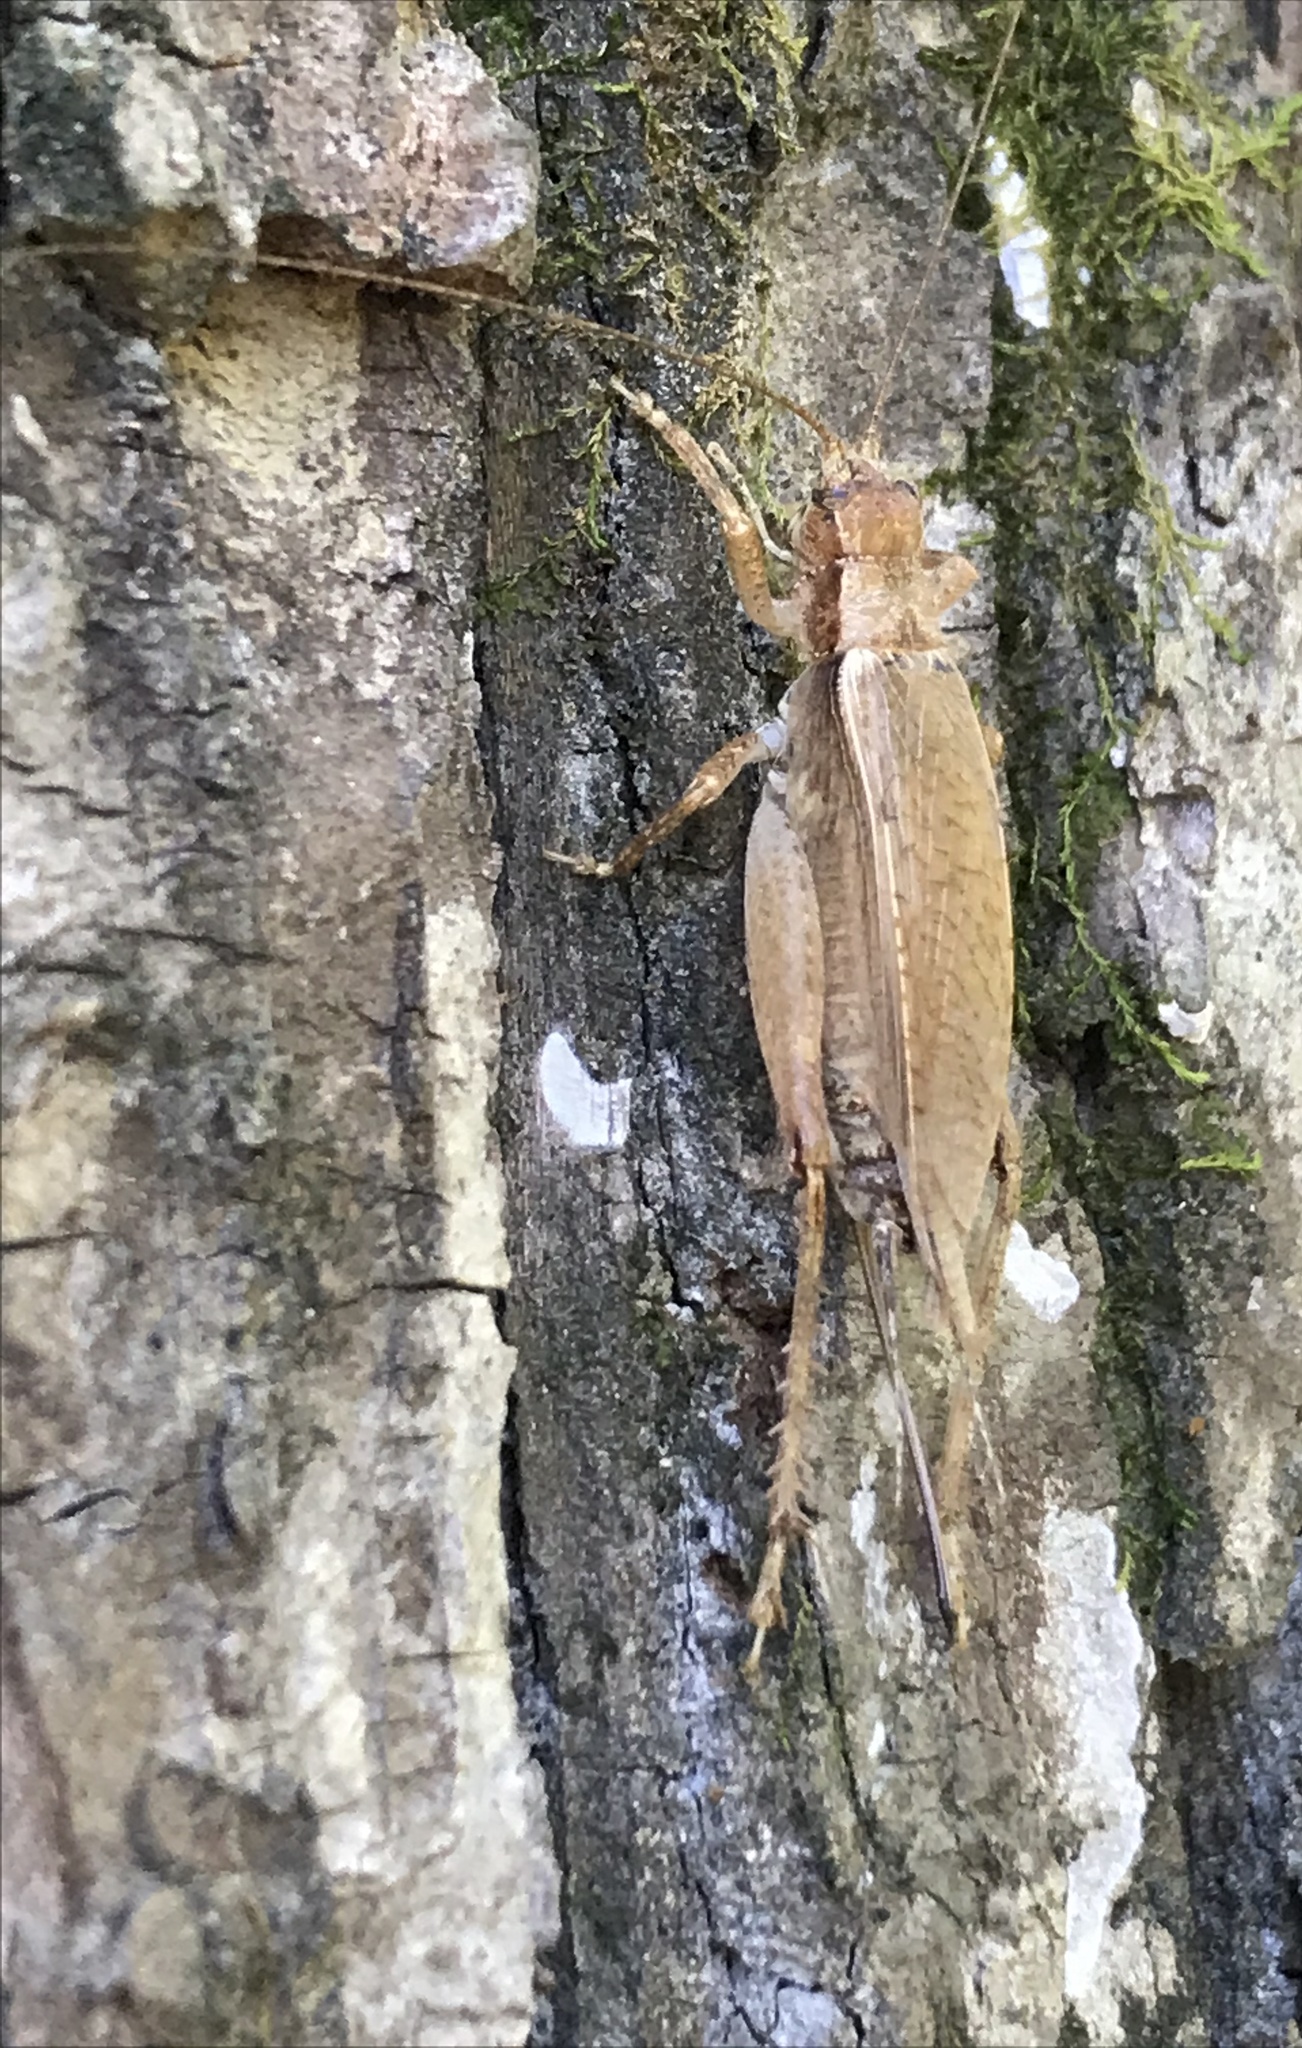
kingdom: Animalia
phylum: Arthropoda
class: Insecta
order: Orthoptera
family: Gryllidae
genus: Hapithus
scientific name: Hapithus saltator
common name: Jumping bush cricket
